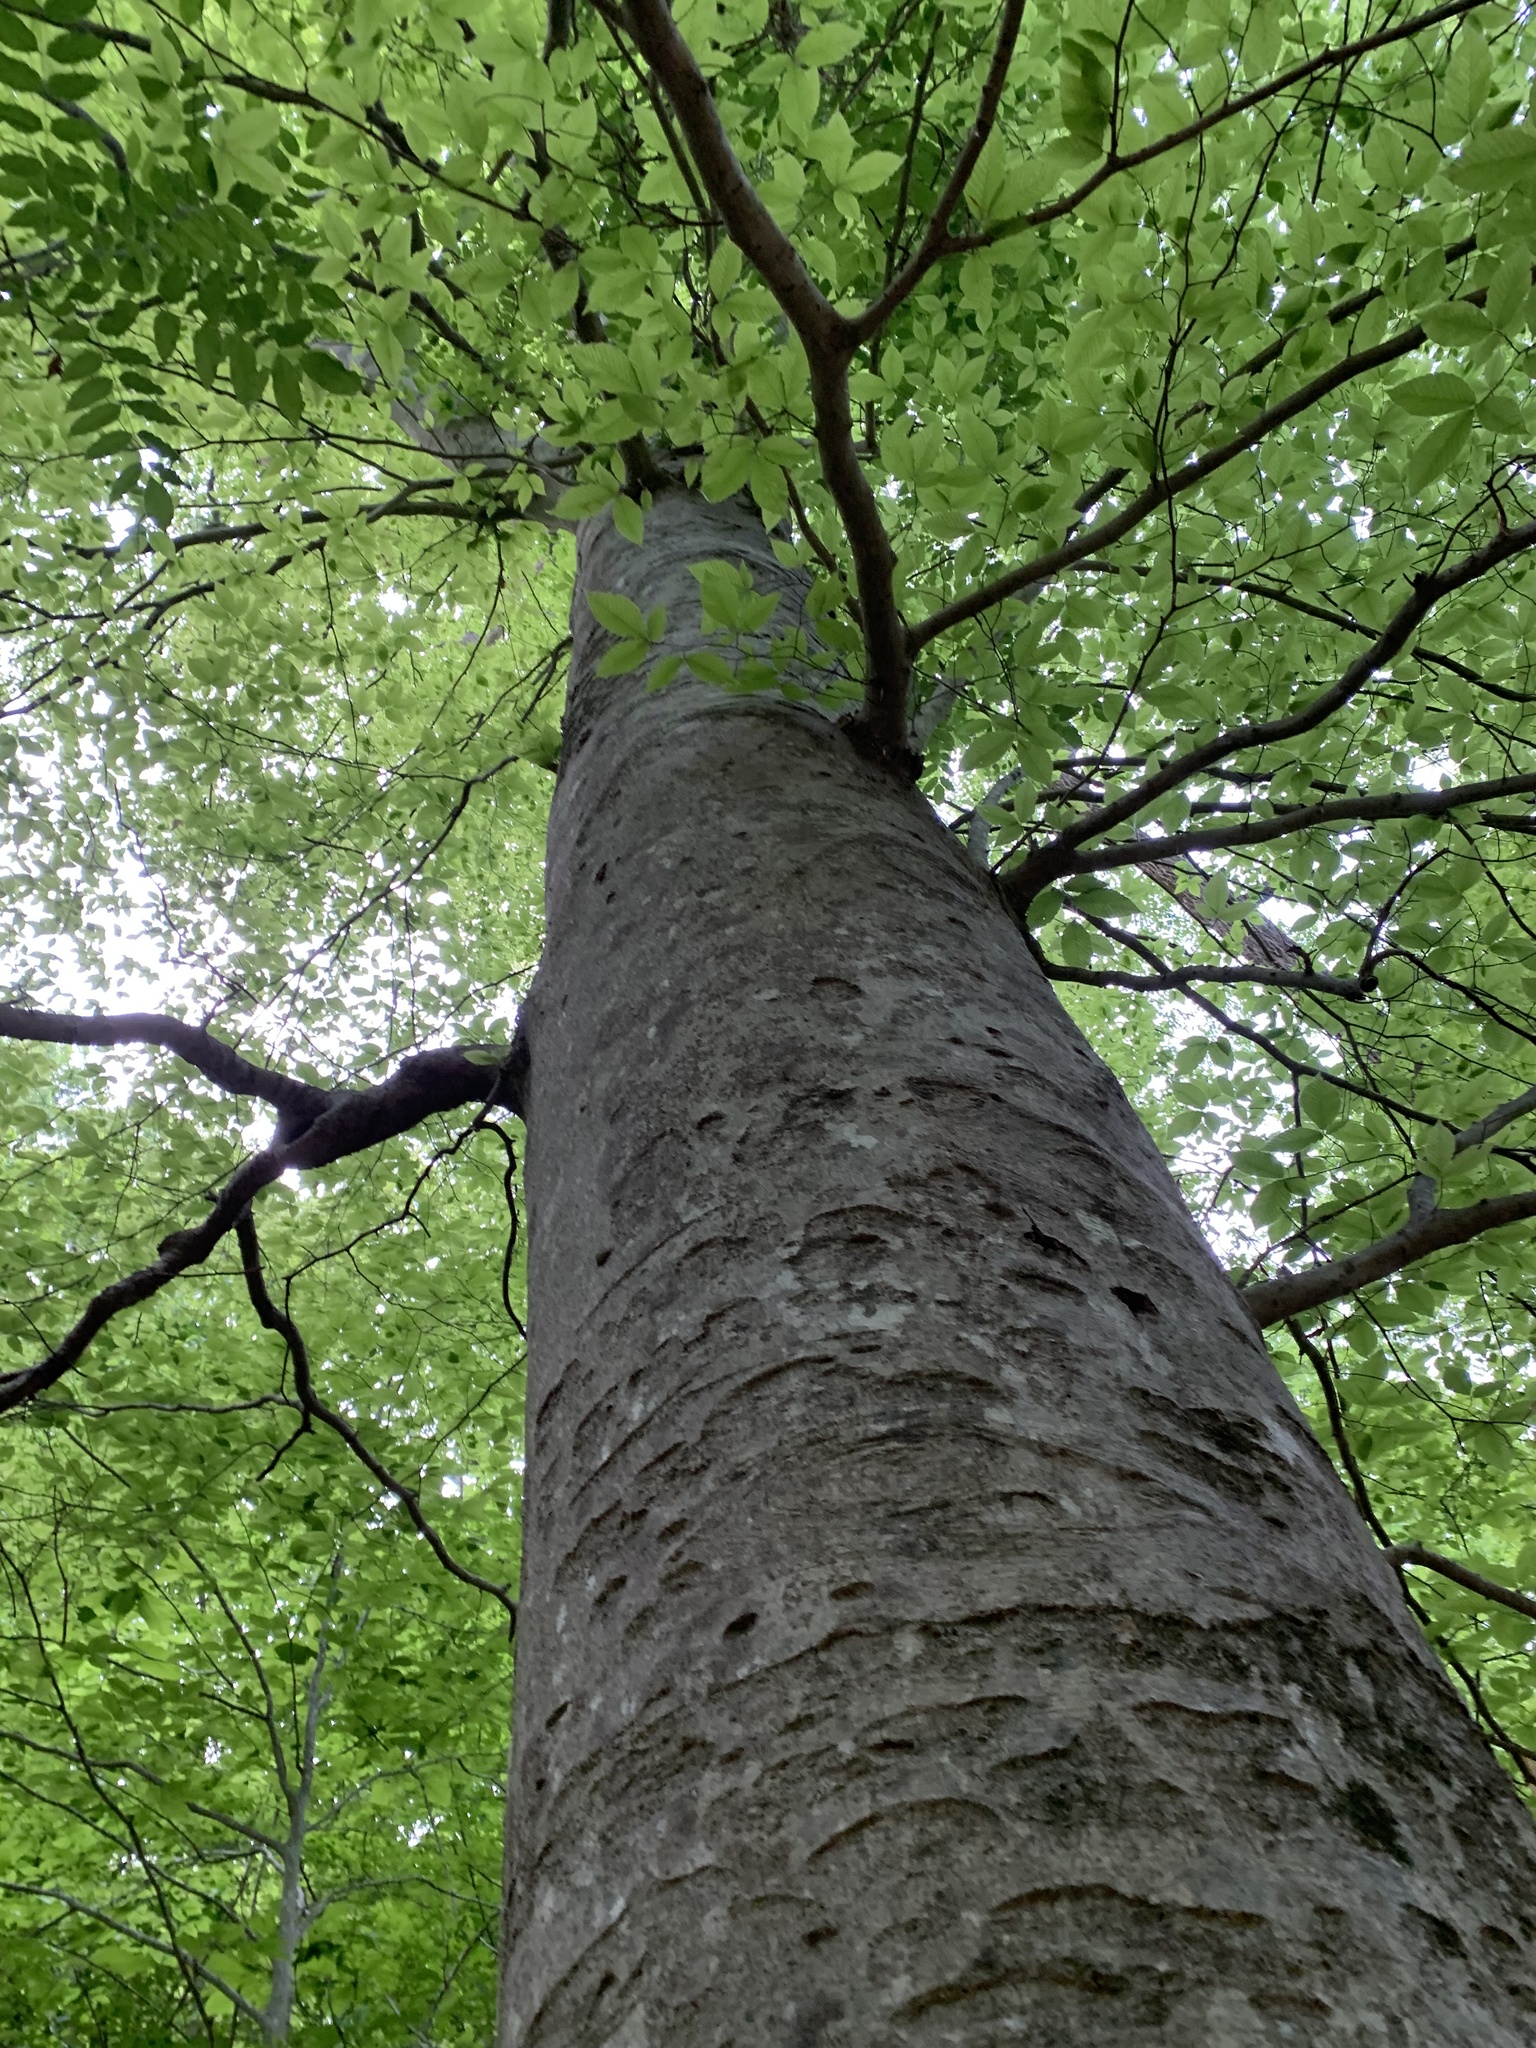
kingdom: Plantae
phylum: Tracheophyta
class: Magnoliopsida
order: Fagales
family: Fagaceae
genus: Fagus
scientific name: Fagus grandifolia
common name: American beech
